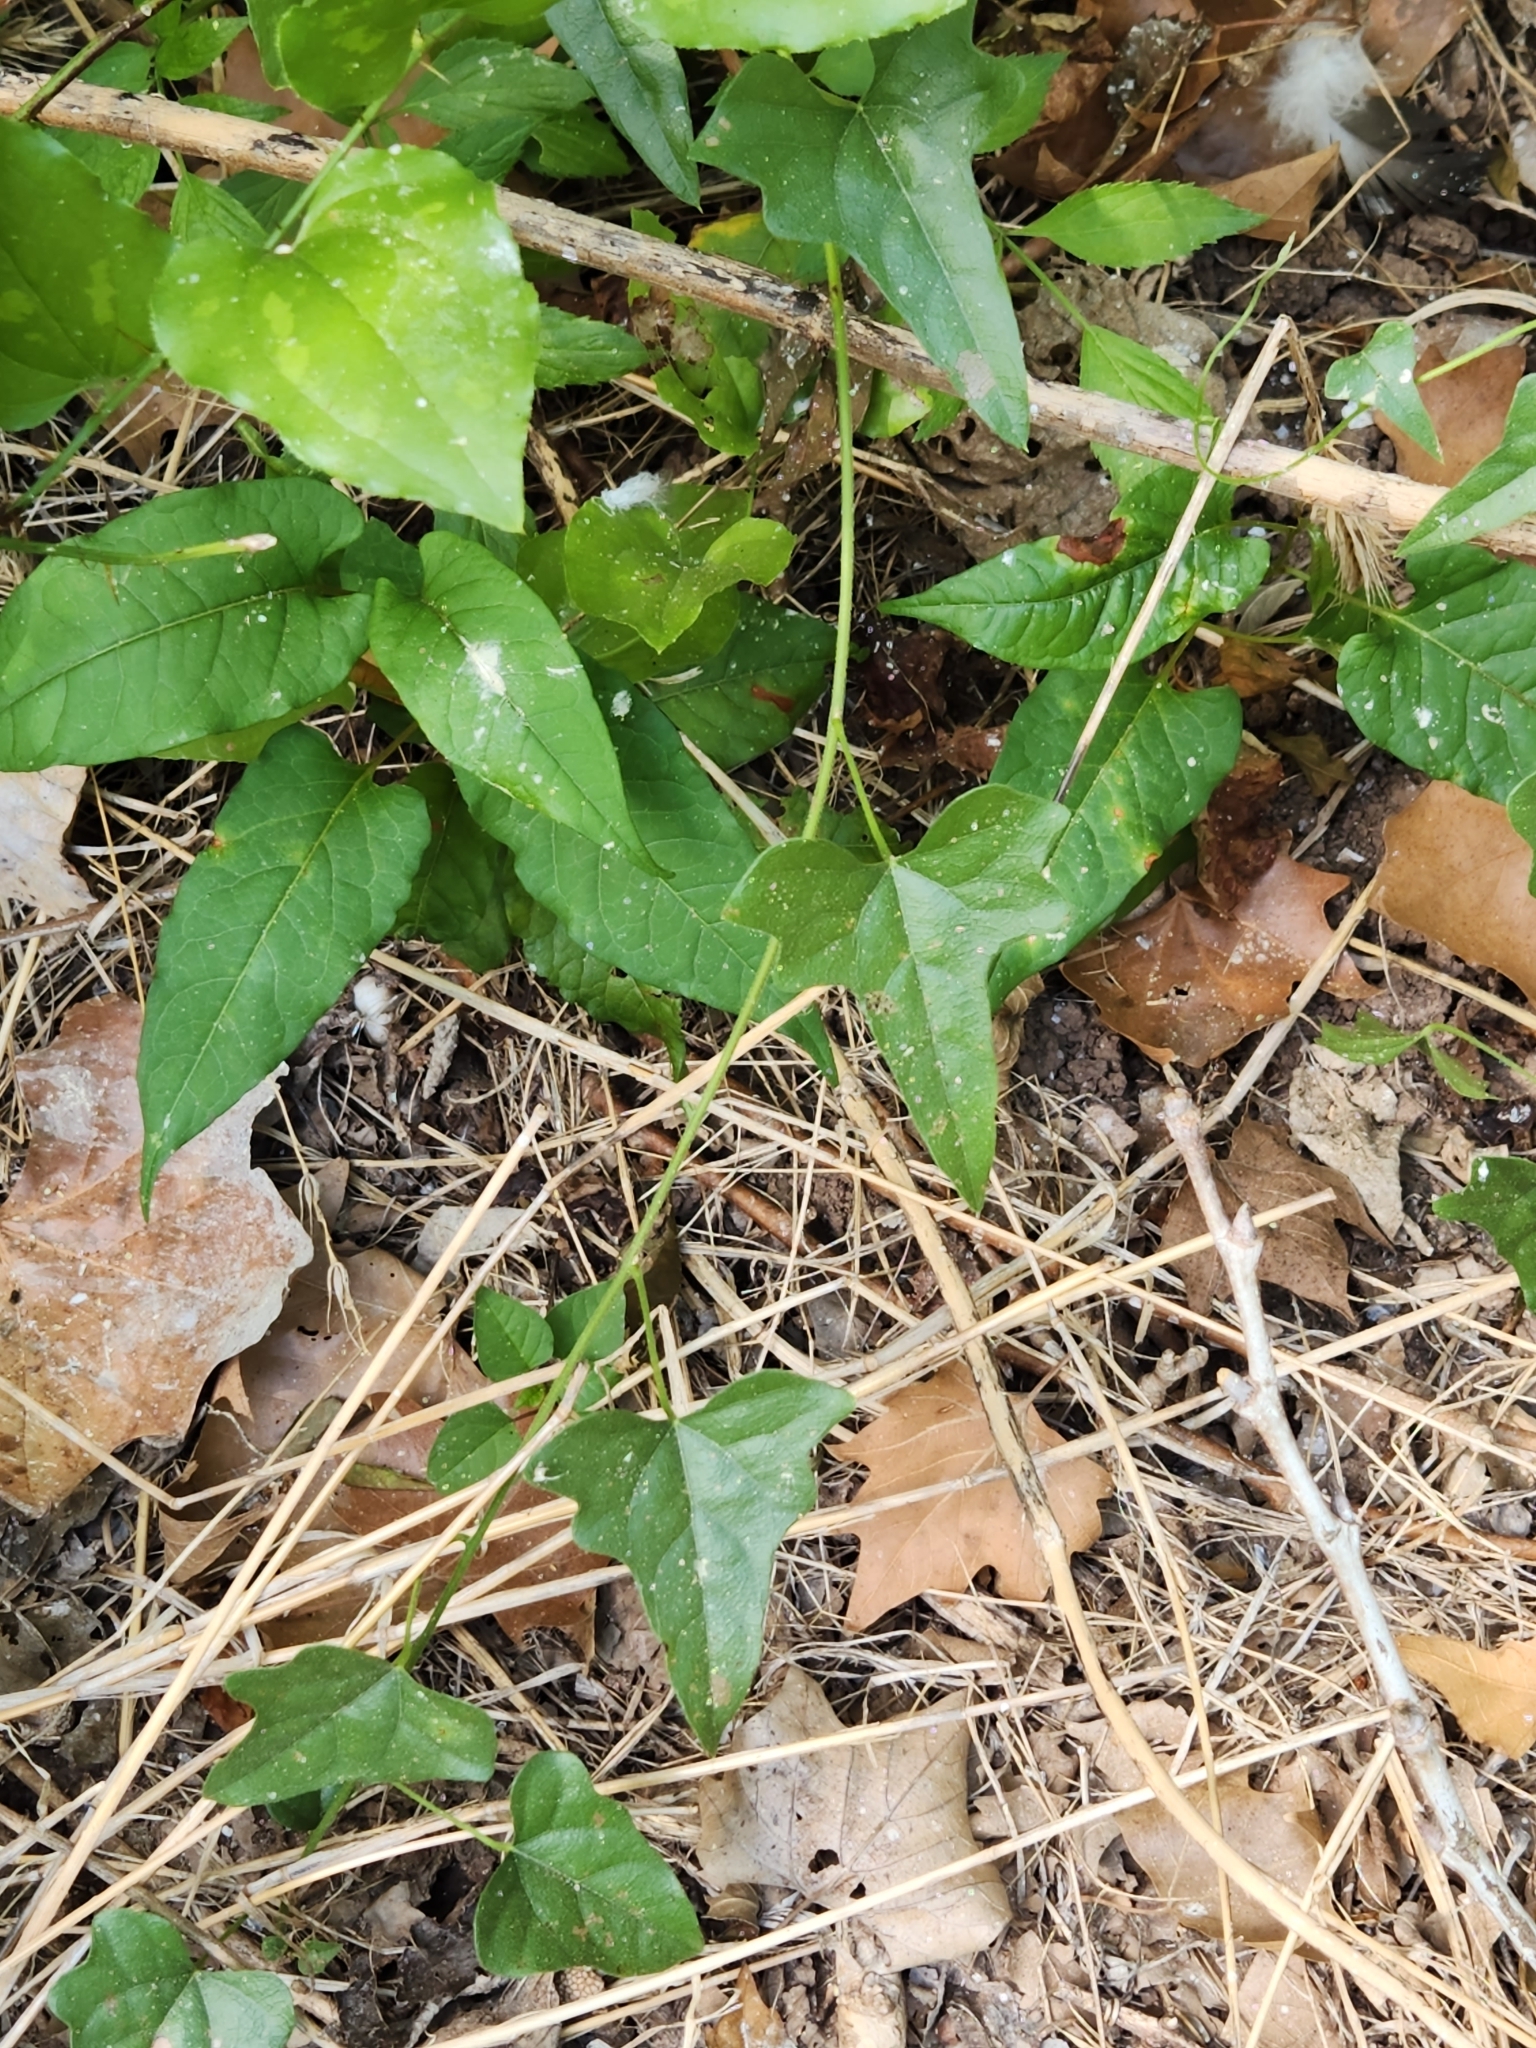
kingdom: Plantae
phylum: Tracheophyta
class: Magnoliopsida
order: Ranunculales
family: Menispermaceae
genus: Cocculus
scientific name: Cocculus carolinus
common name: Carolina moonseed
